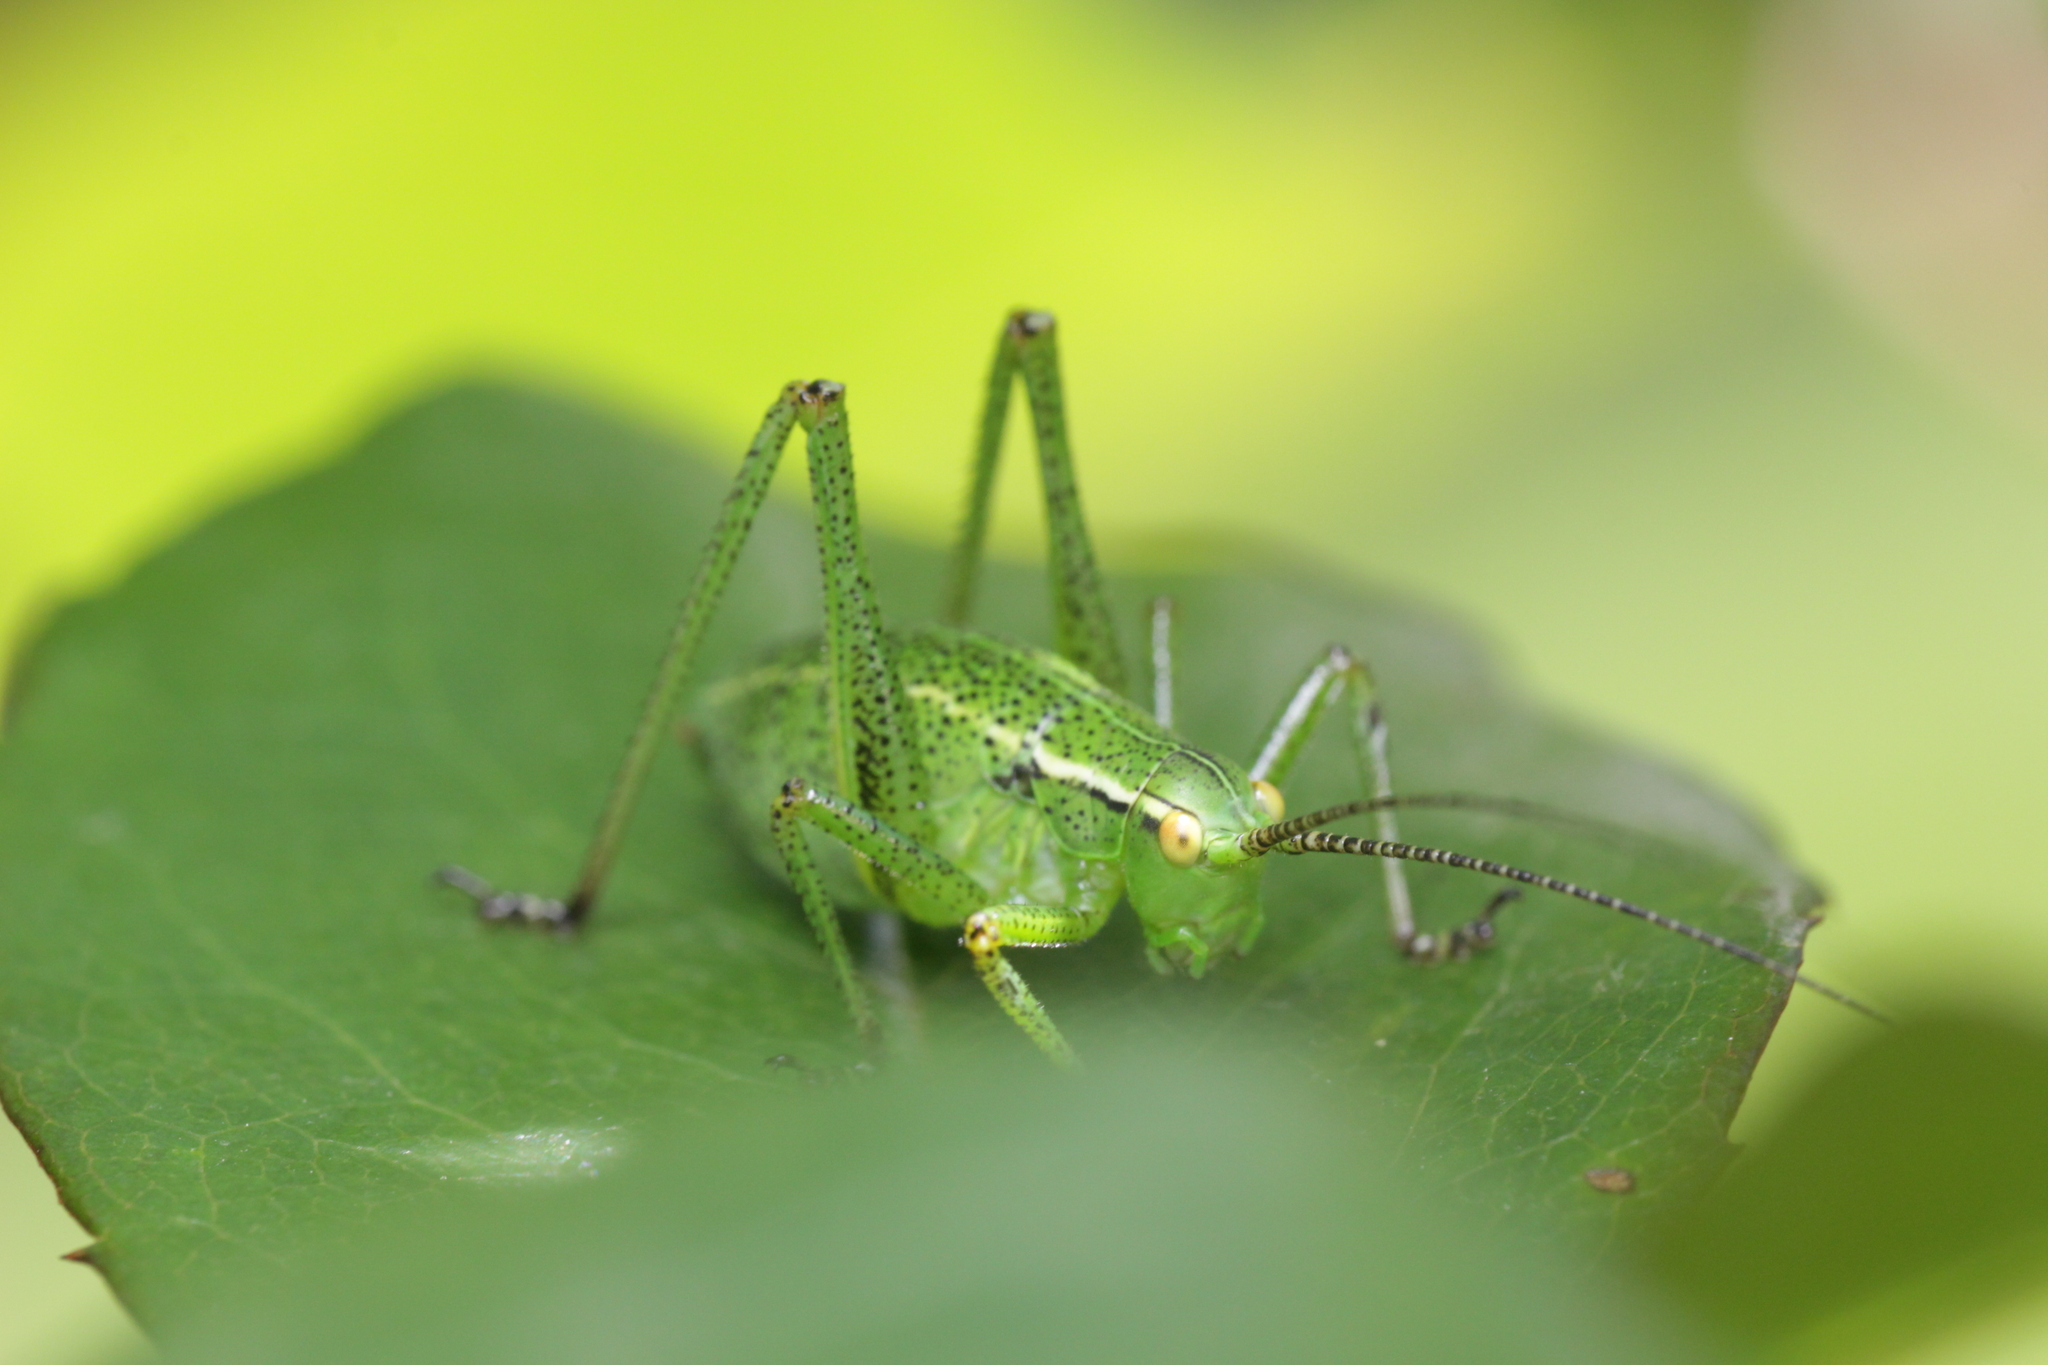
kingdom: Animalia
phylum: Arthropoda
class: Insecta
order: Orthoptera
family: Tettigoniidae
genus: Barbitistes
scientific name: Barbitistes serricauda
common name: Saw-tailed bush-cricket
